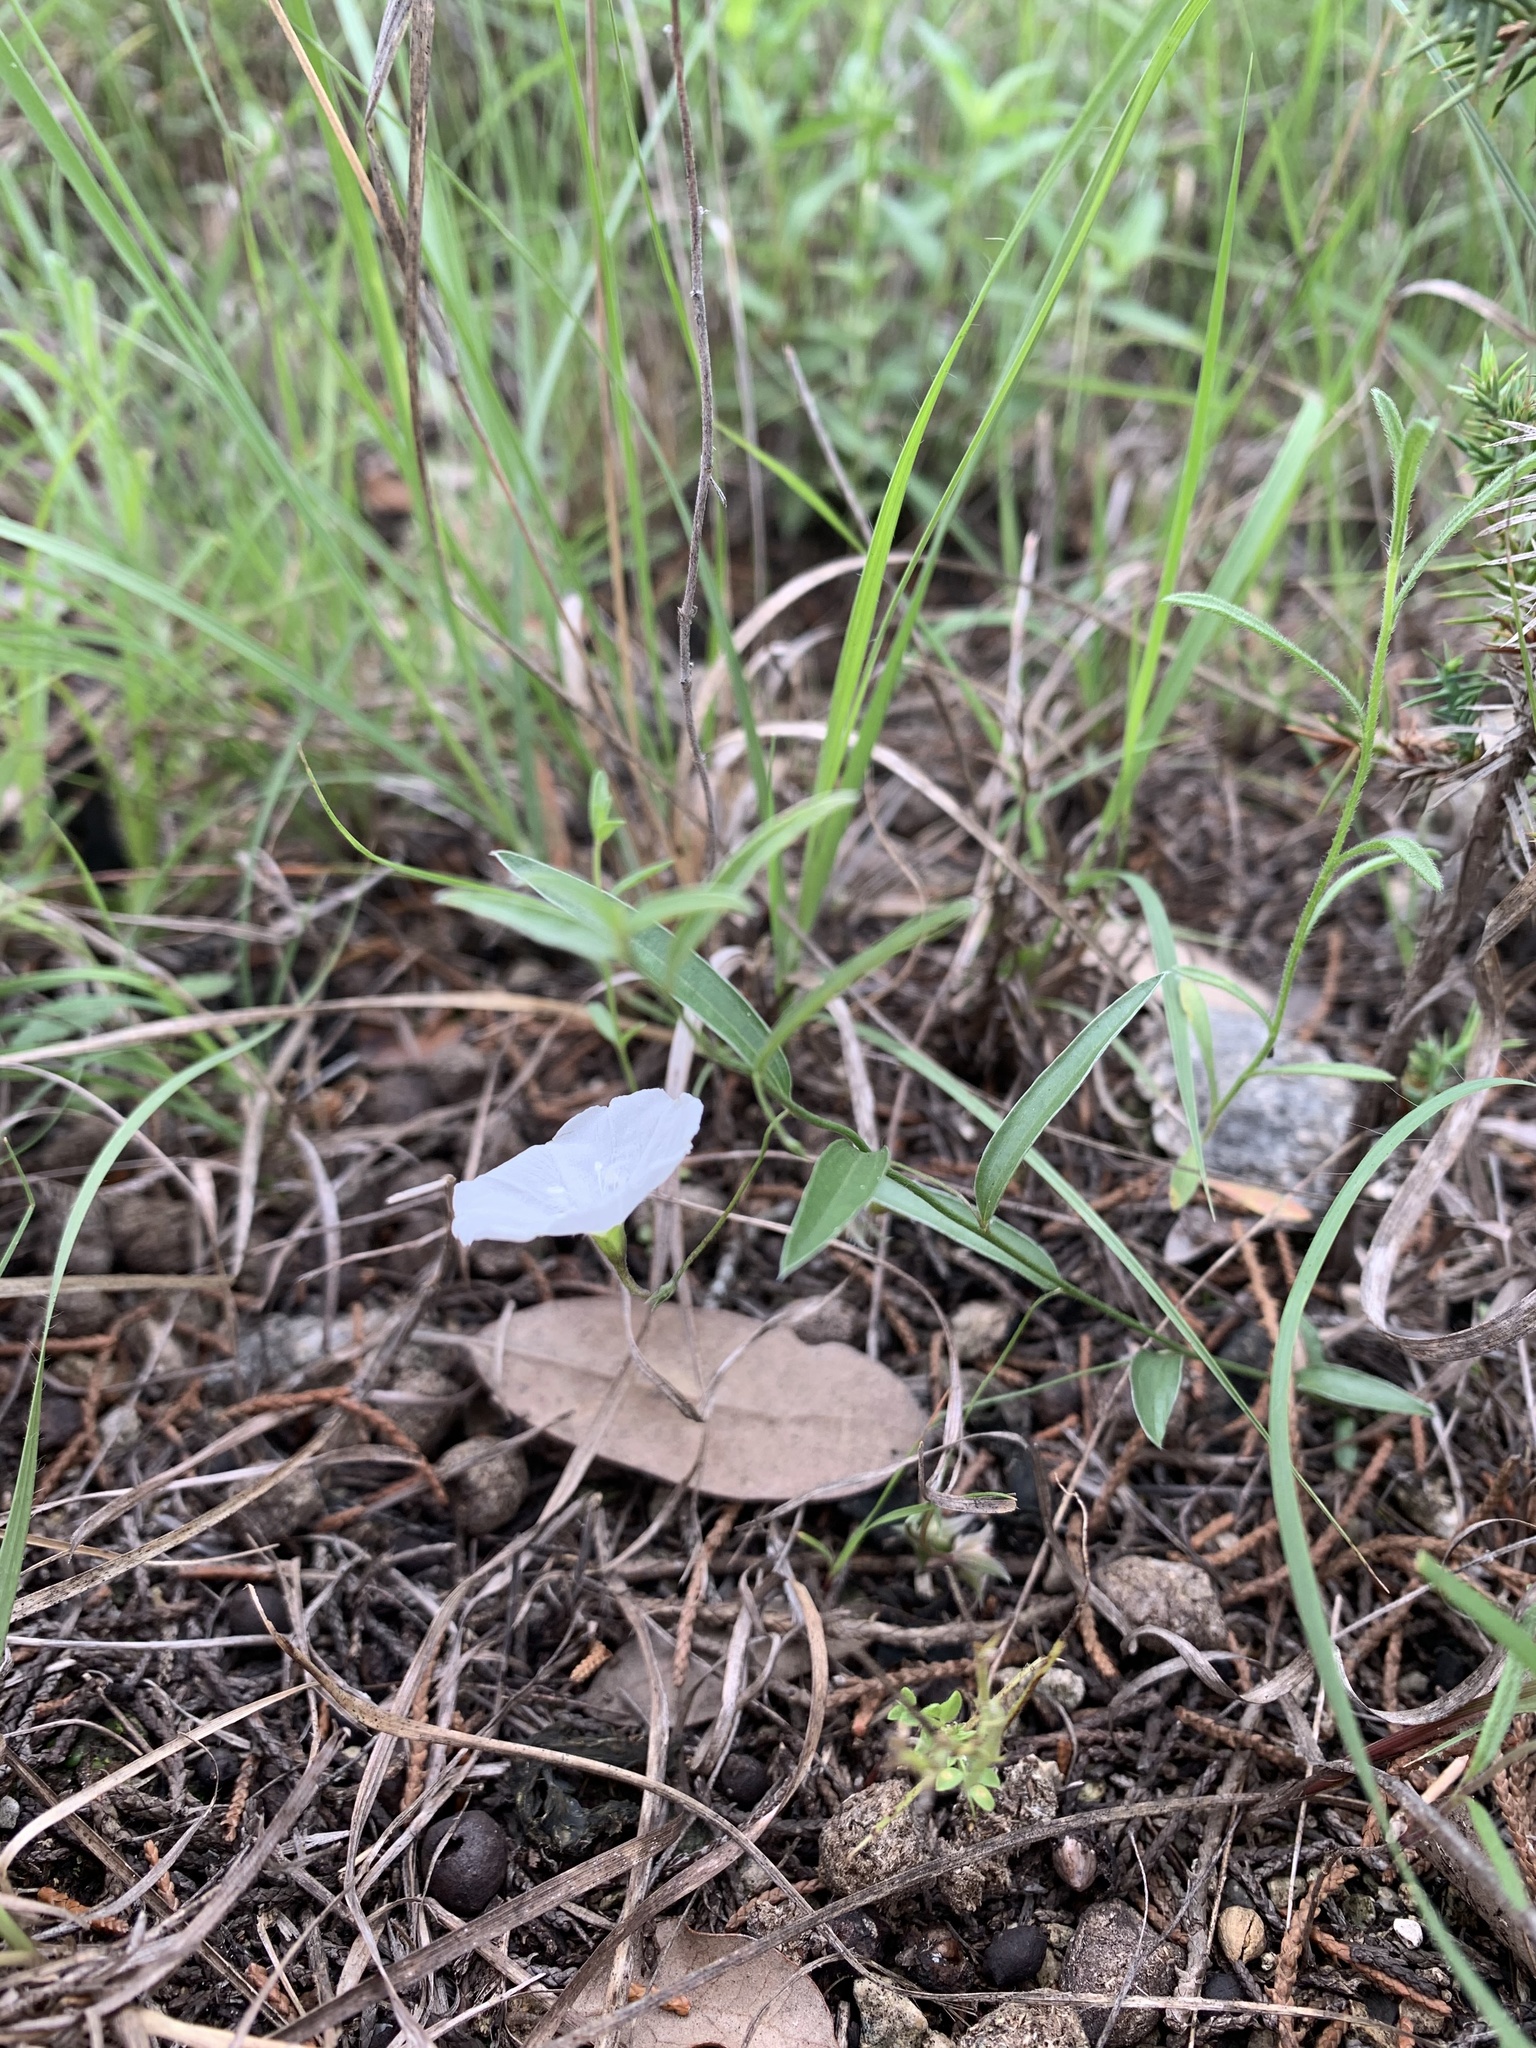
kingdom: Plantae
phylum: Tracheophyta
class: Magnoliopsida
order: Solanales
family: Convolvulaceae
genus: Evolvulus
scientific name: Evolvulus sericeus
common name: Blue dots
